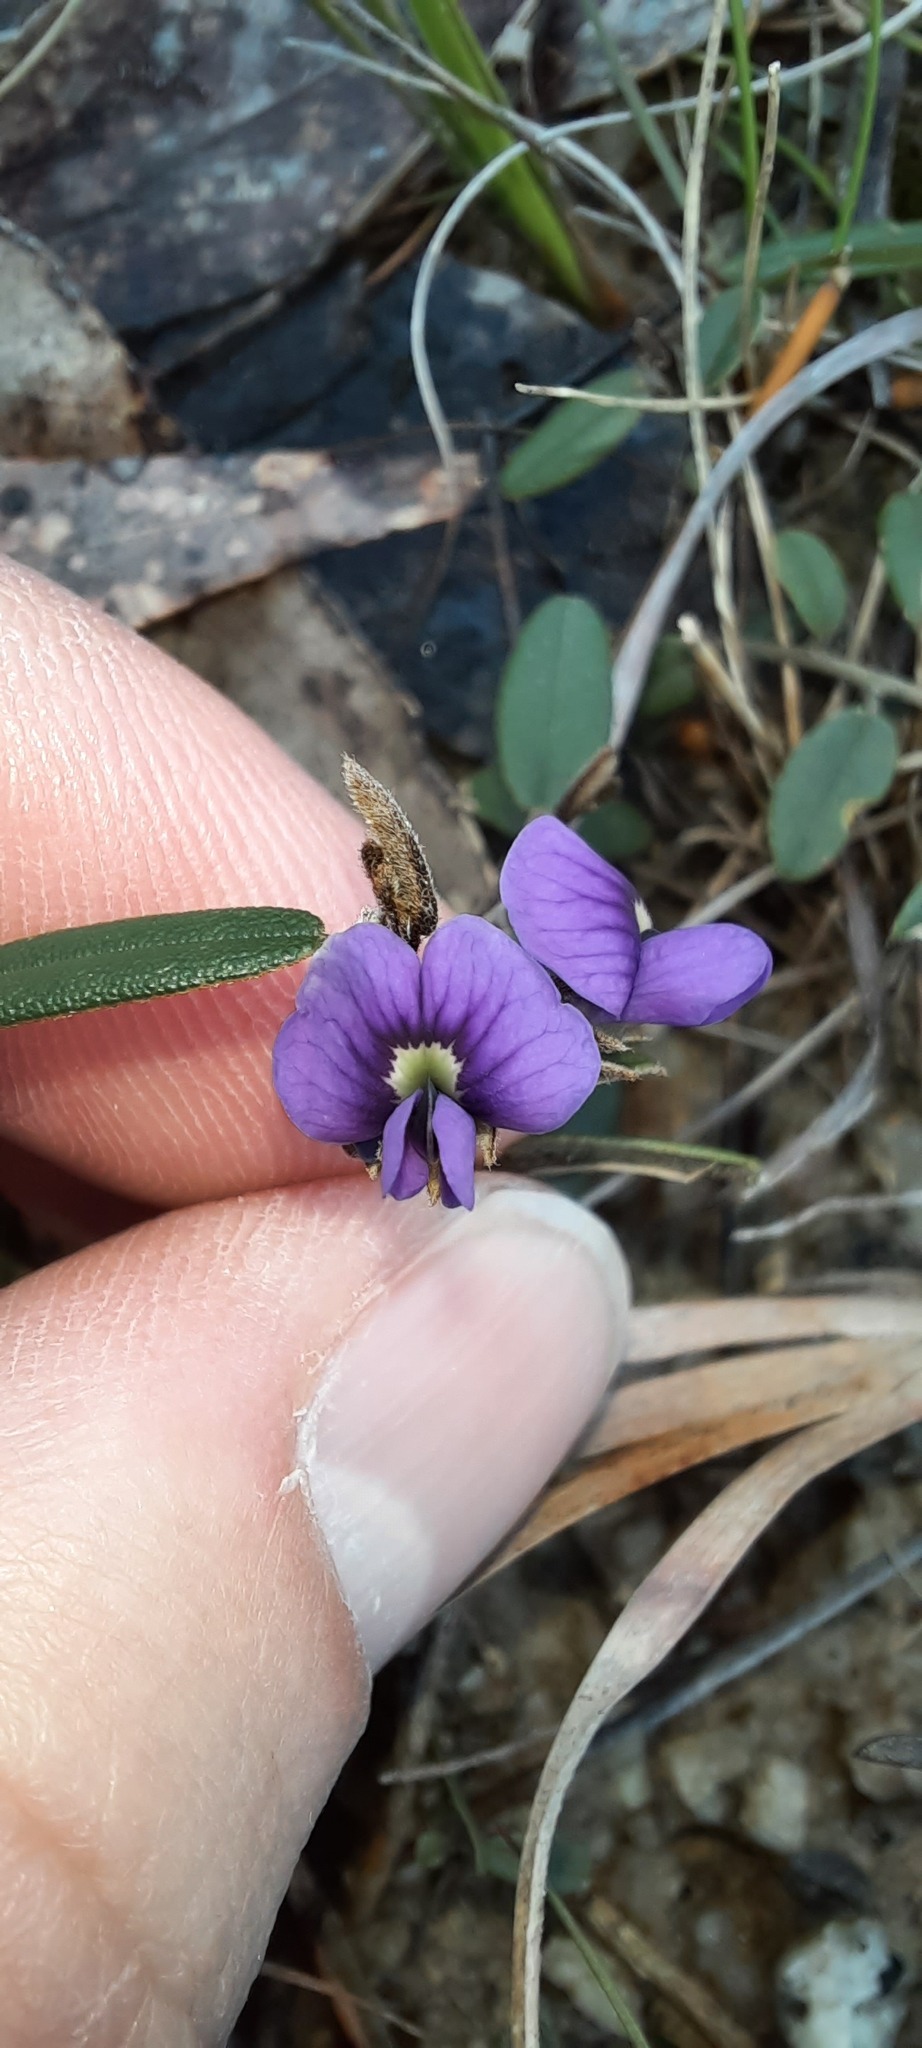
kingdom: Plantae
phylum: Tracheophyta
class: Magnoliopsida
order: Fabales
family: Fabaceae
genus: Hovea
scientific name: Hovea heterophylla
